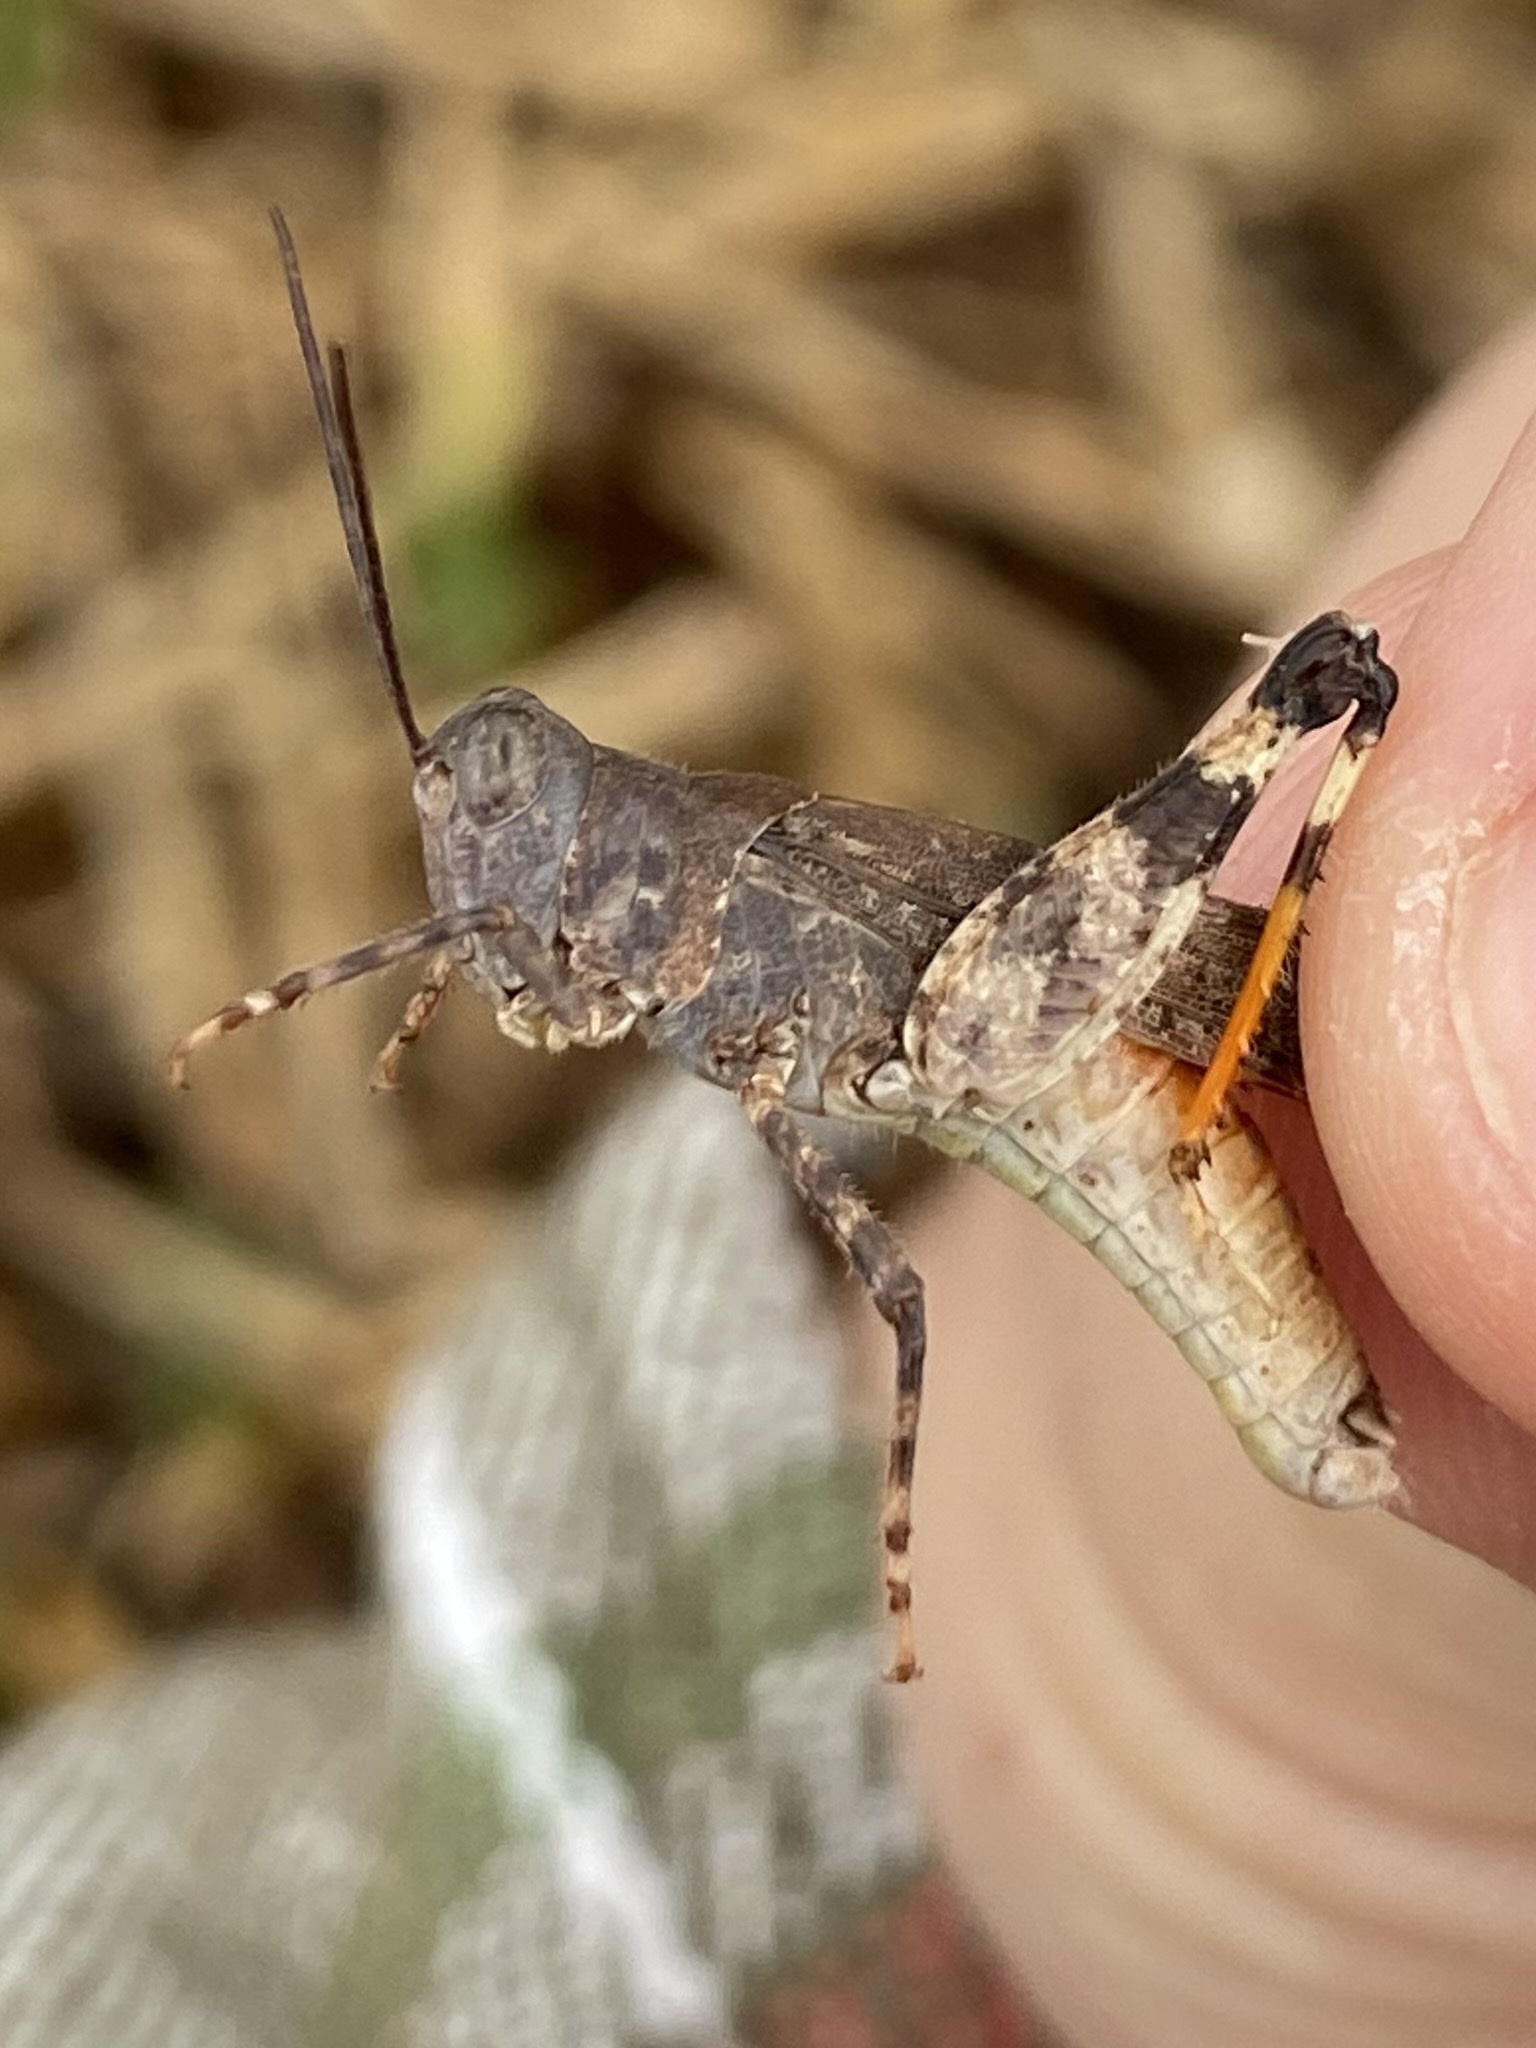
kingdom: Animalia
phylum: Arthropoda
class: Insecta
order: Orthoptera
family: Acrididae
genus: Heliastus
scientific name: Heliastus benjamini
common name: Arroyo grasshopper
